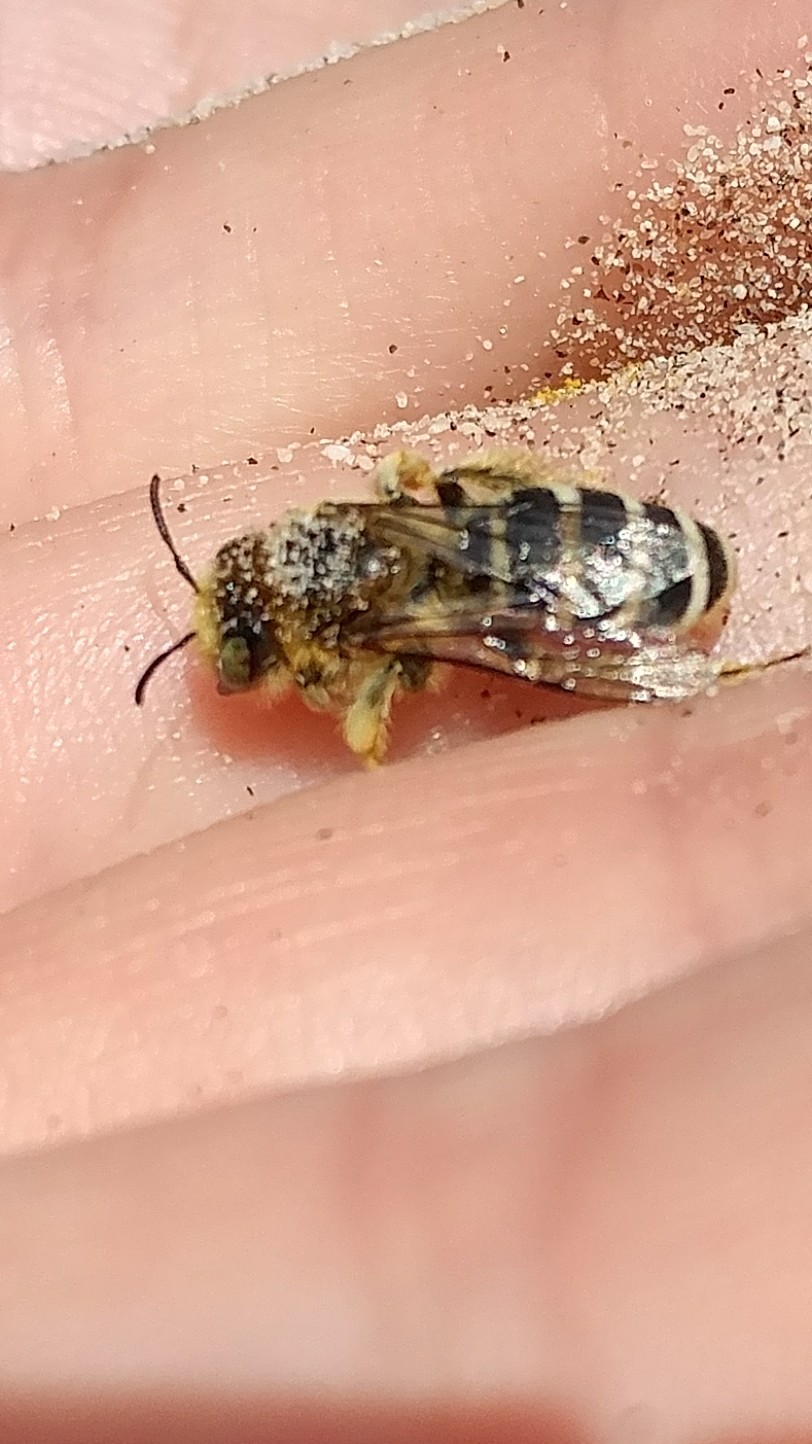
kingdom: Animalia
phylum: Arthropoda
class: Insecta
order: Hymenoptera
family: Melittidae
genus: Hesperapis
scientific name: Hesperapis
